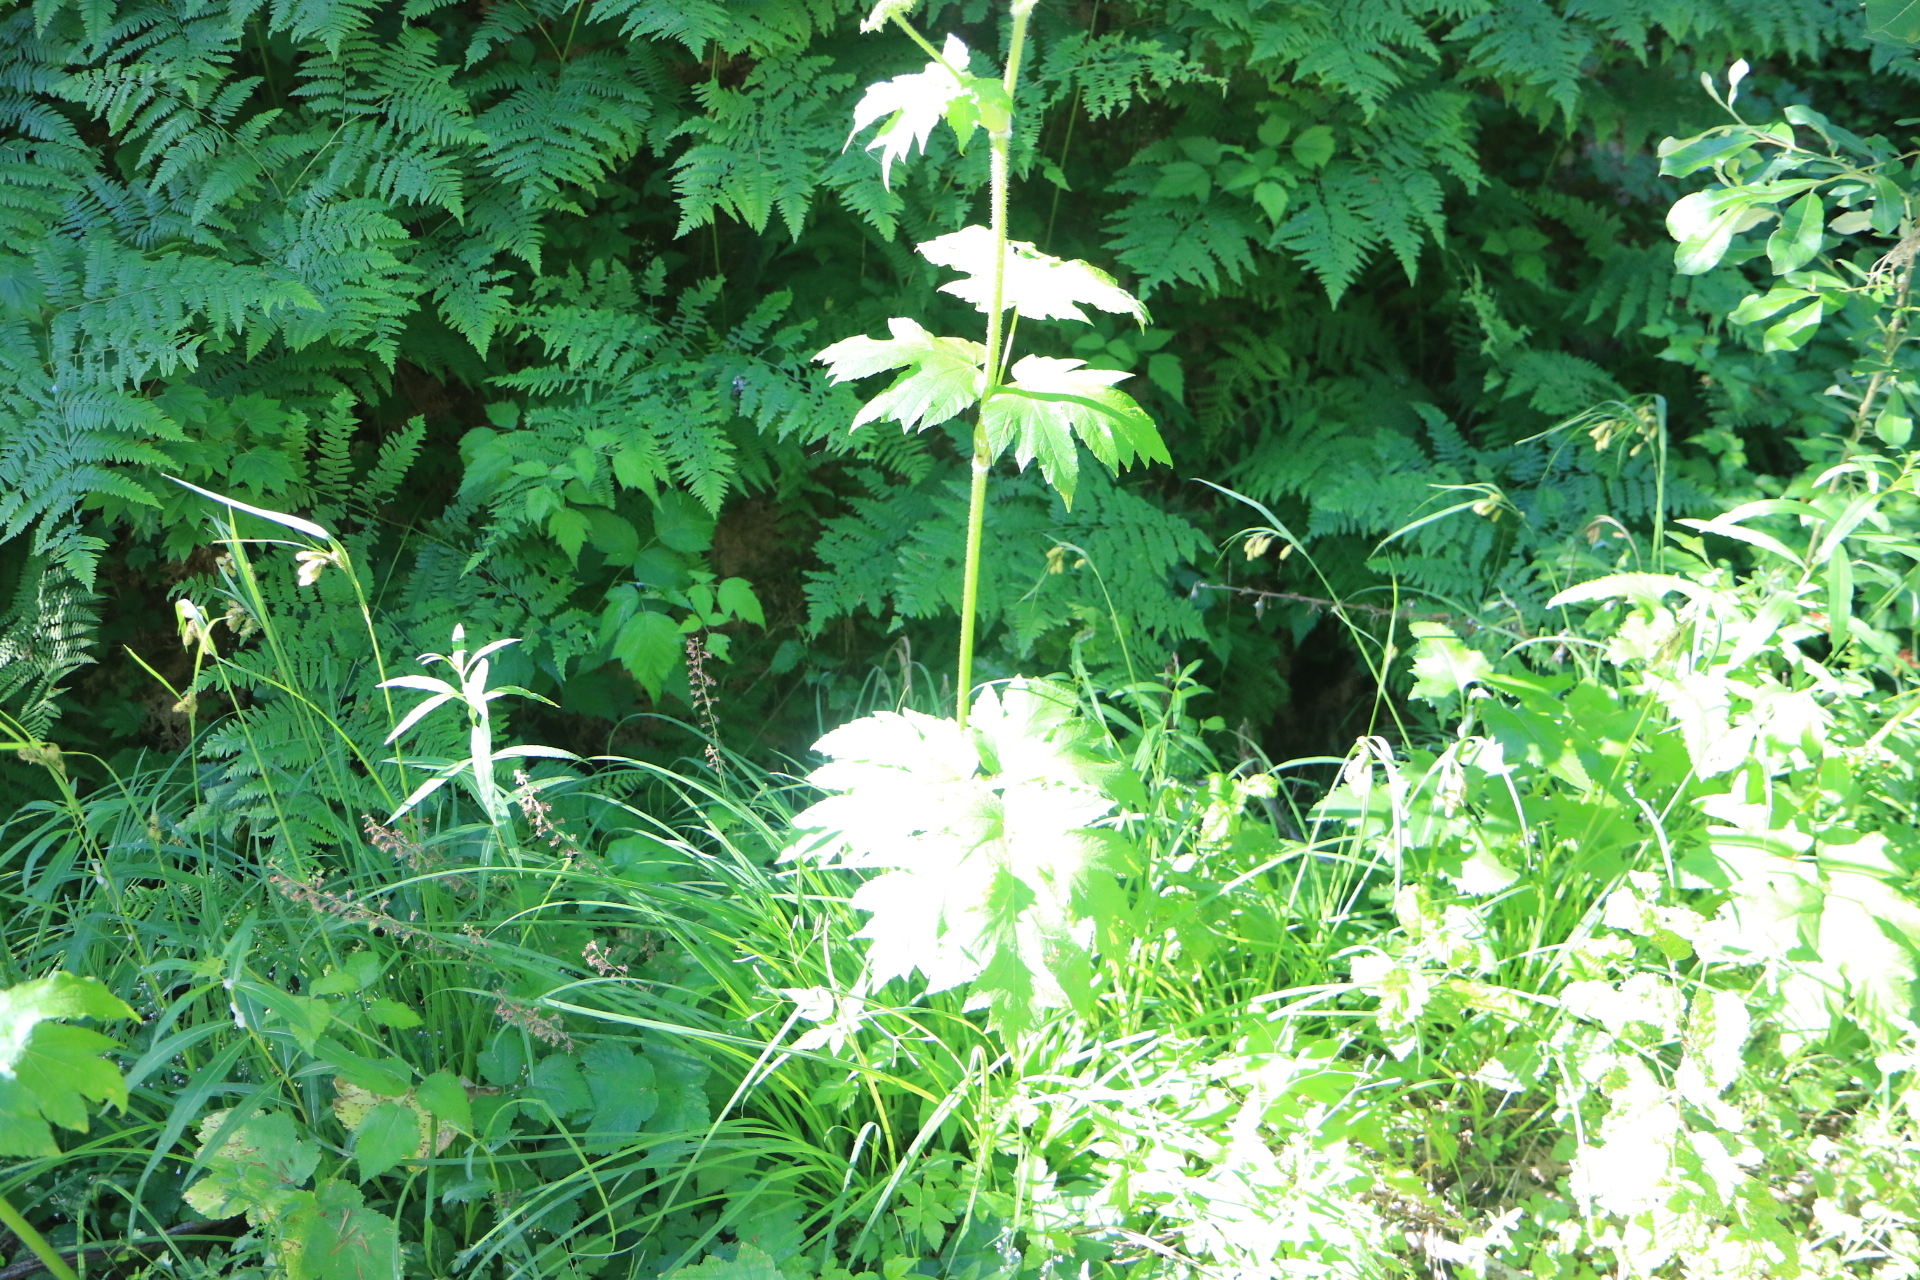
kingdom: Plantae
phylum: Tracheophyta
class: Magnoliopsida
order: Apiales
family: Apiaceae
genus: Heracleum
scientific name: Heracleum maximum
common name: American cow parsnip
